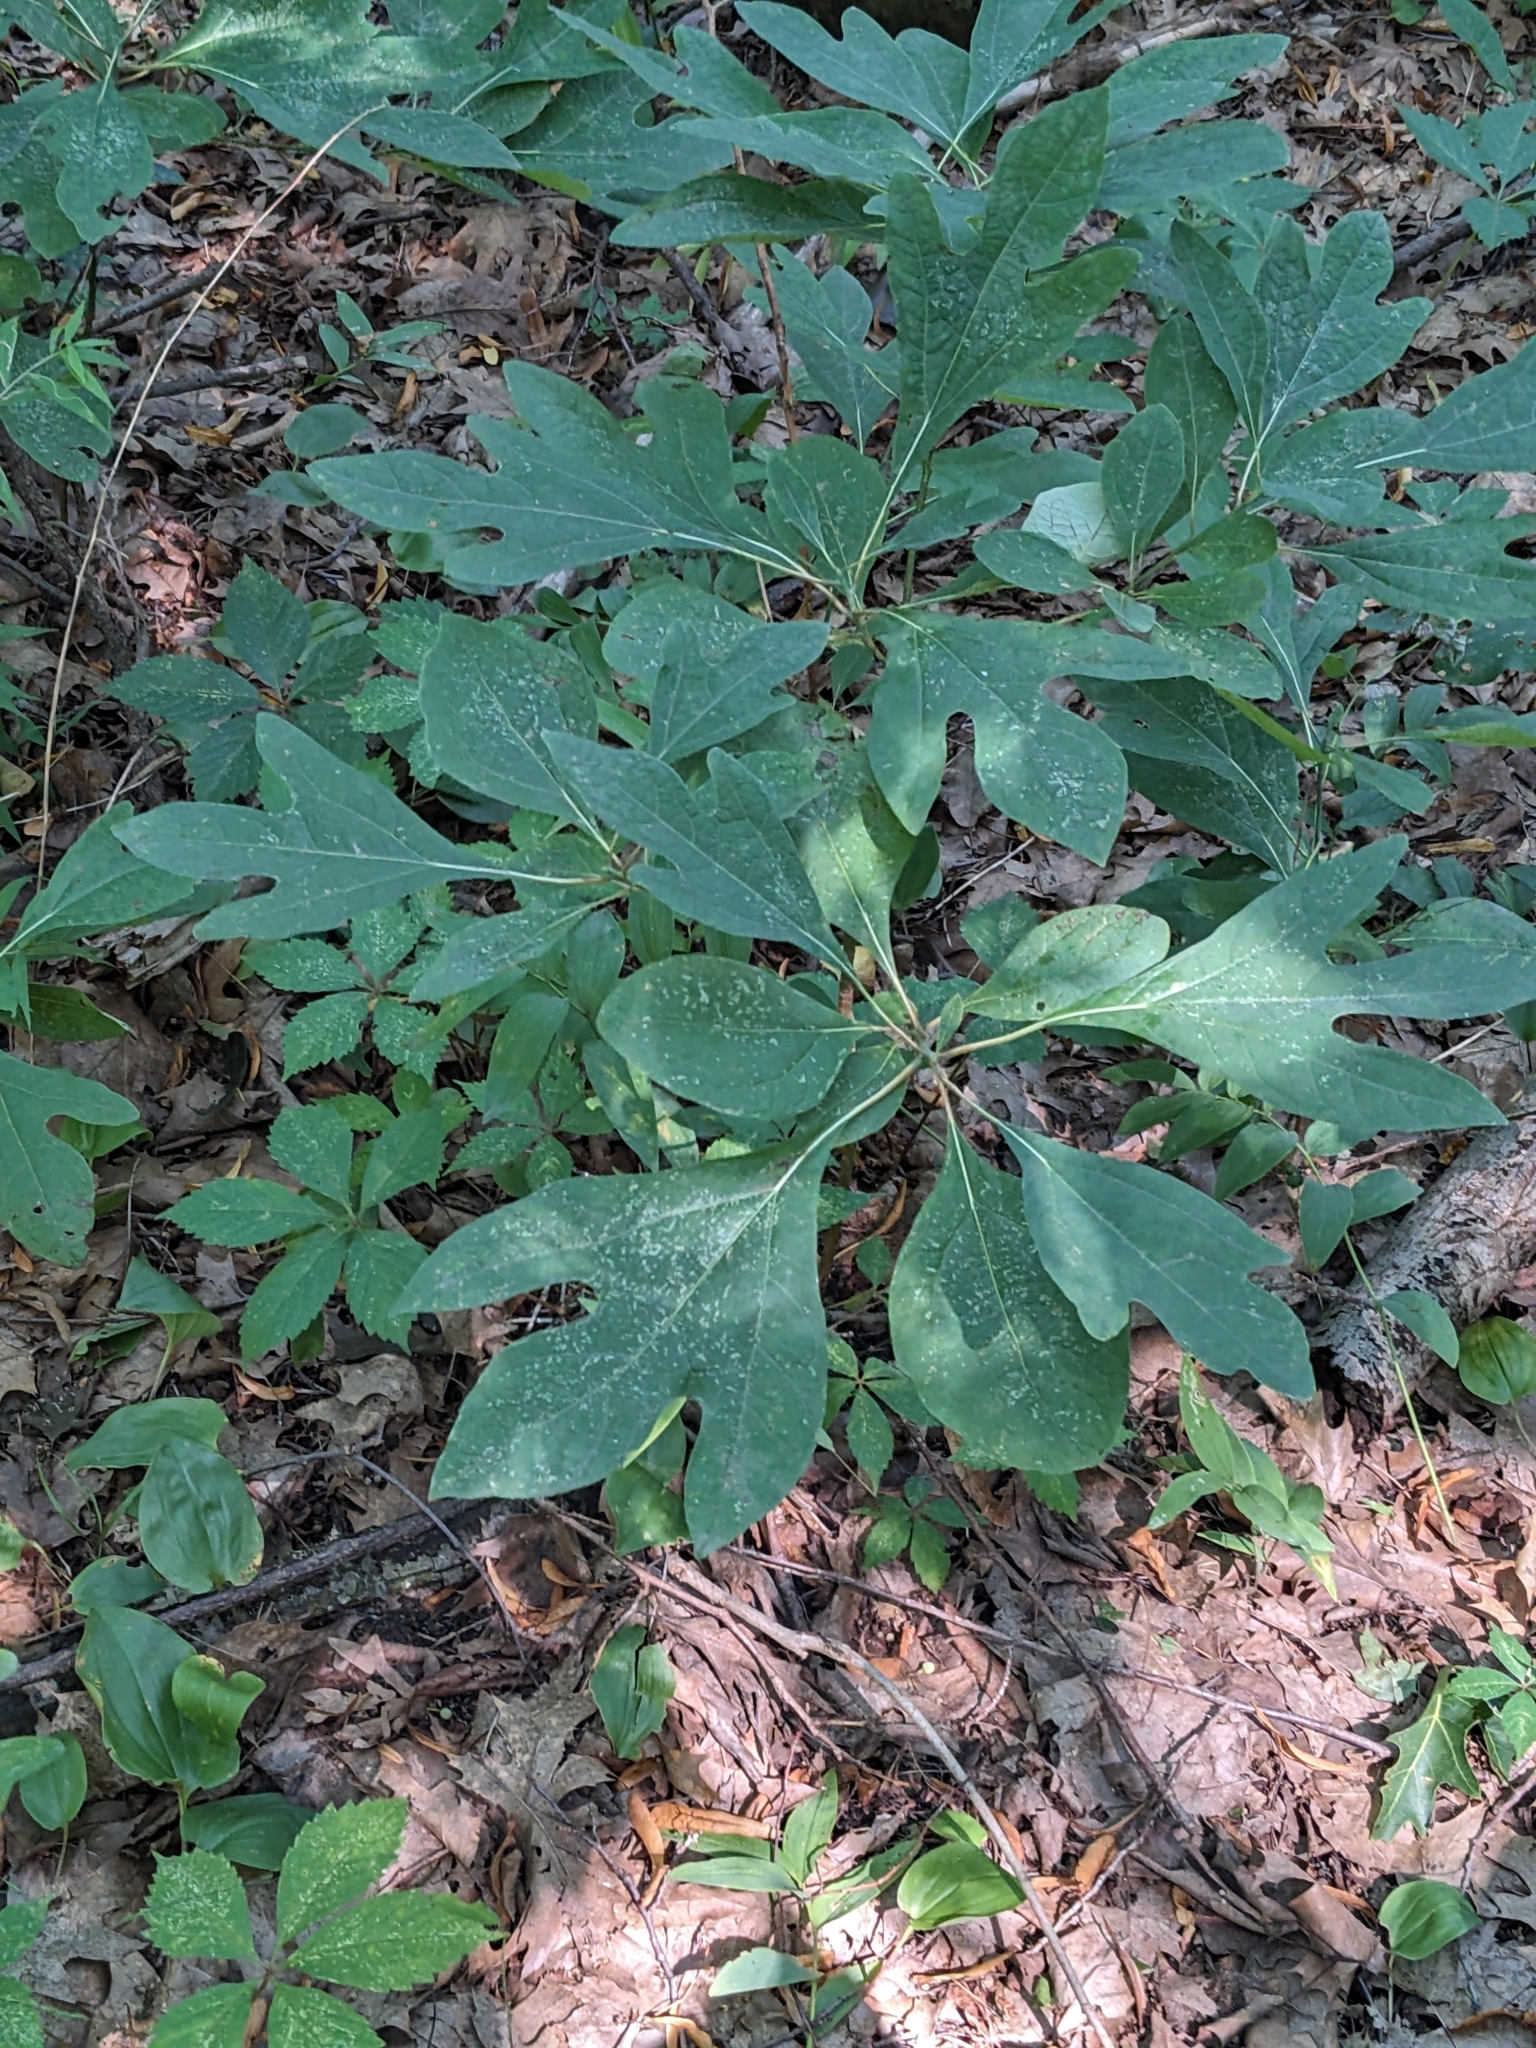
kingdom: Plantae
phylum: Tracheophyta
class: Magnoliopsida
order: Laurales
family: Lauraceae
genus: Sassafras
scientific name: Sassafras albidum
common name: Sassafras
